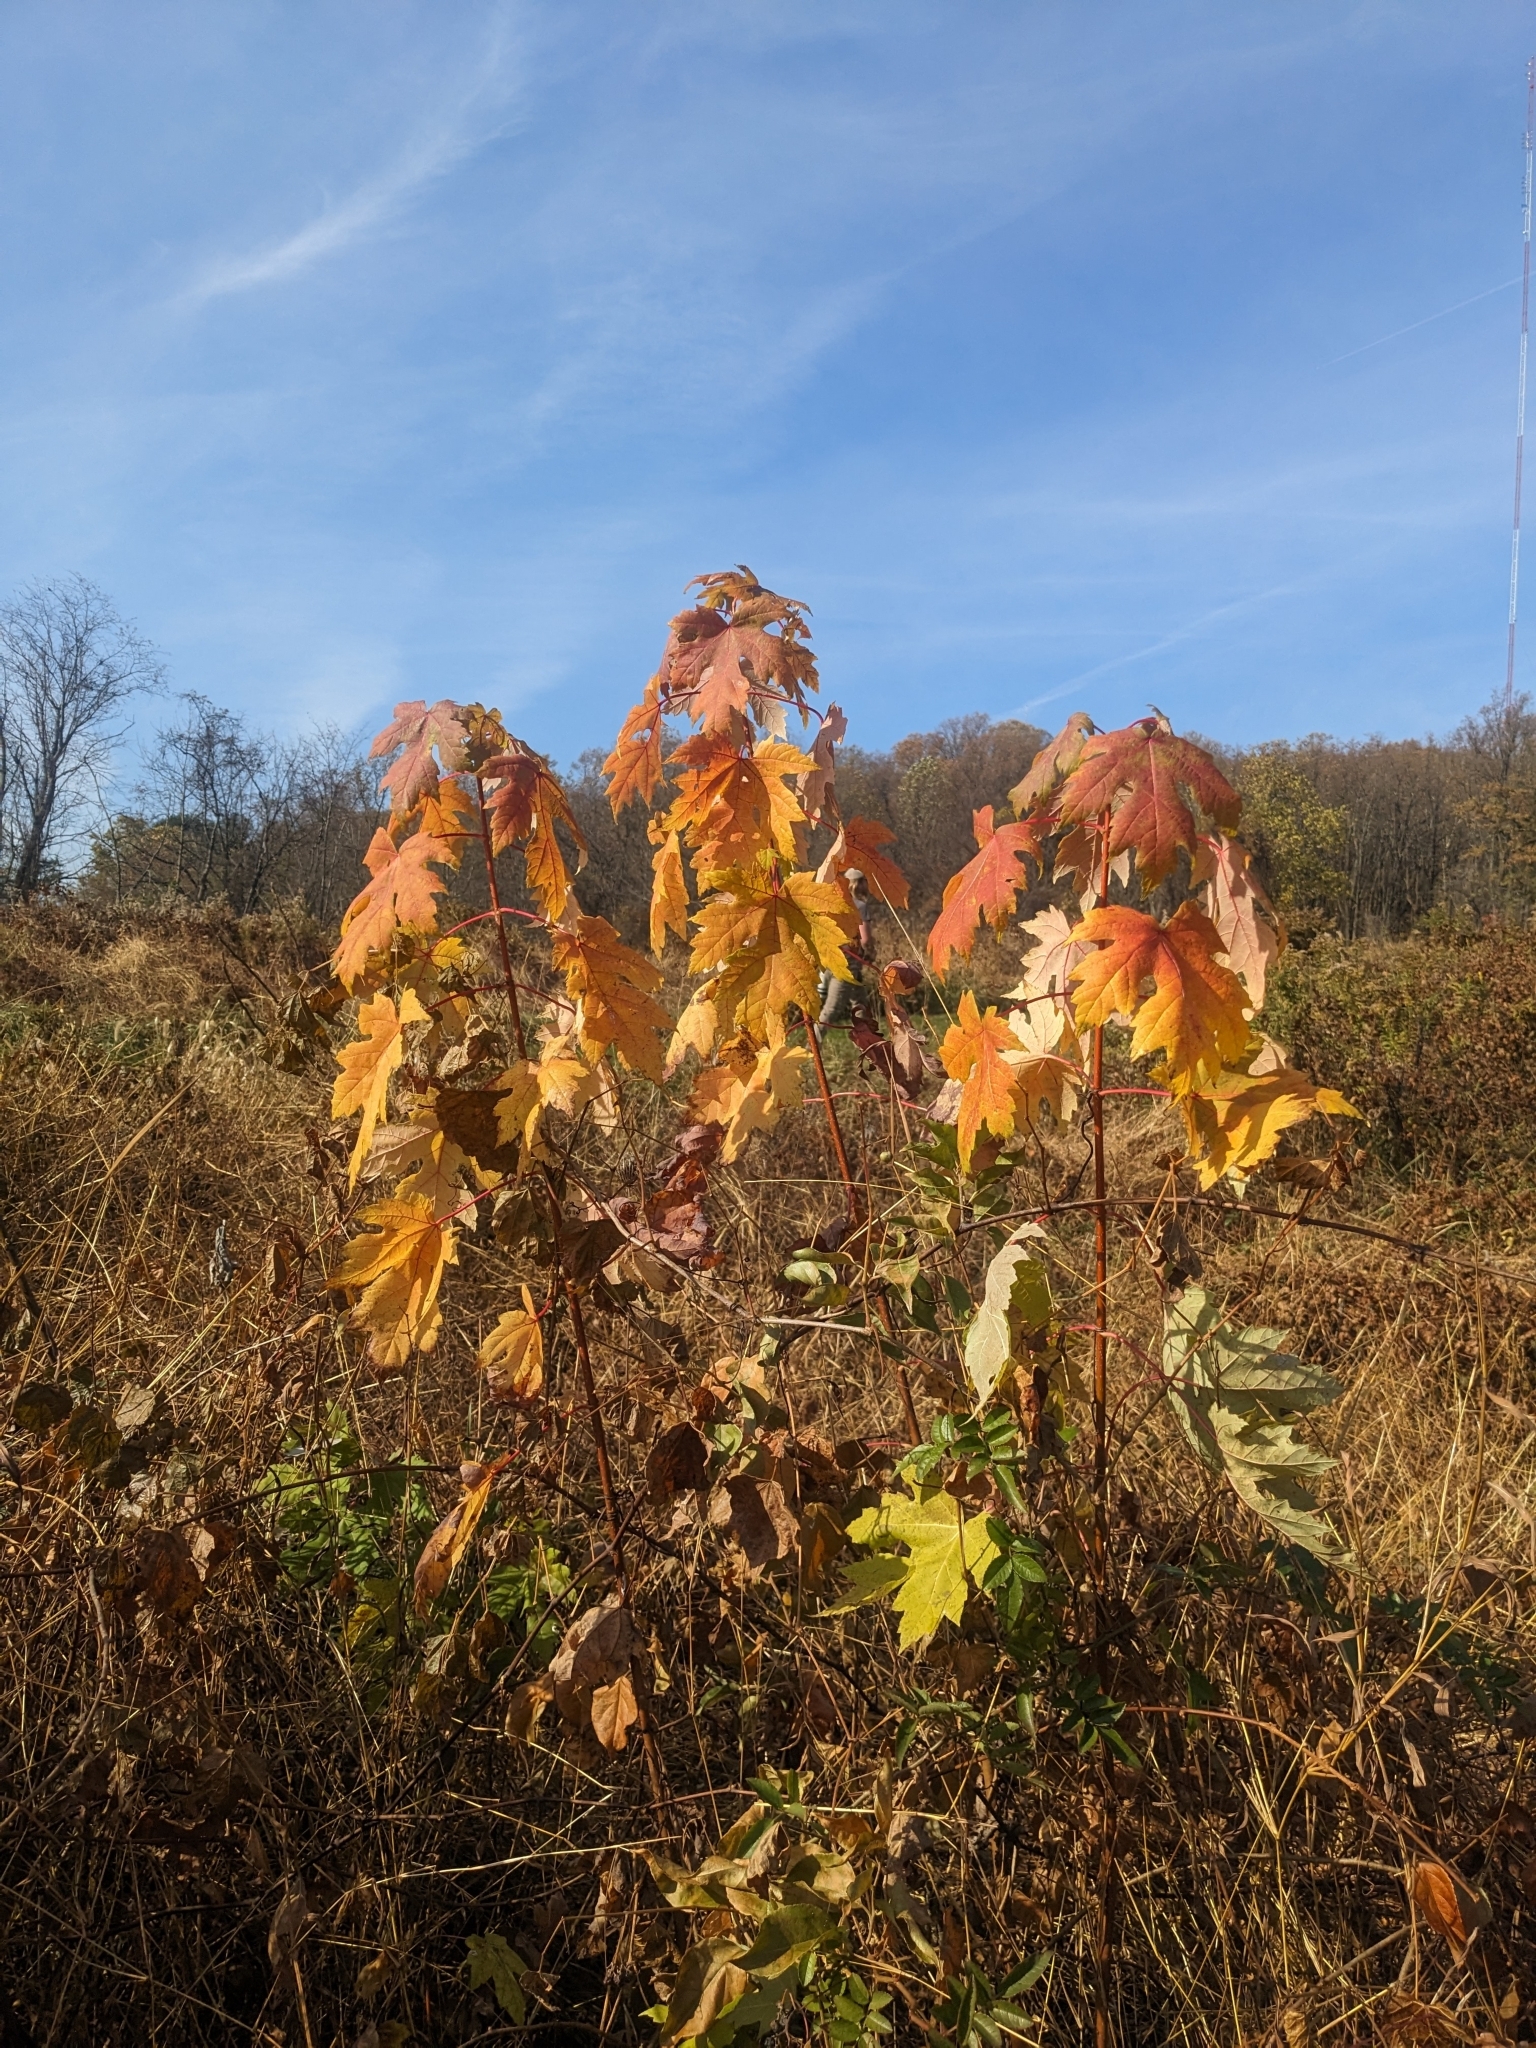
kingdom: Plantae
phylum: Tracheophyta
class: Magnoliopsida
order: Sapindales
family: Sapindaceae
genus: Acer
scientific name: Acer saccharinum
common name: Silver maple
